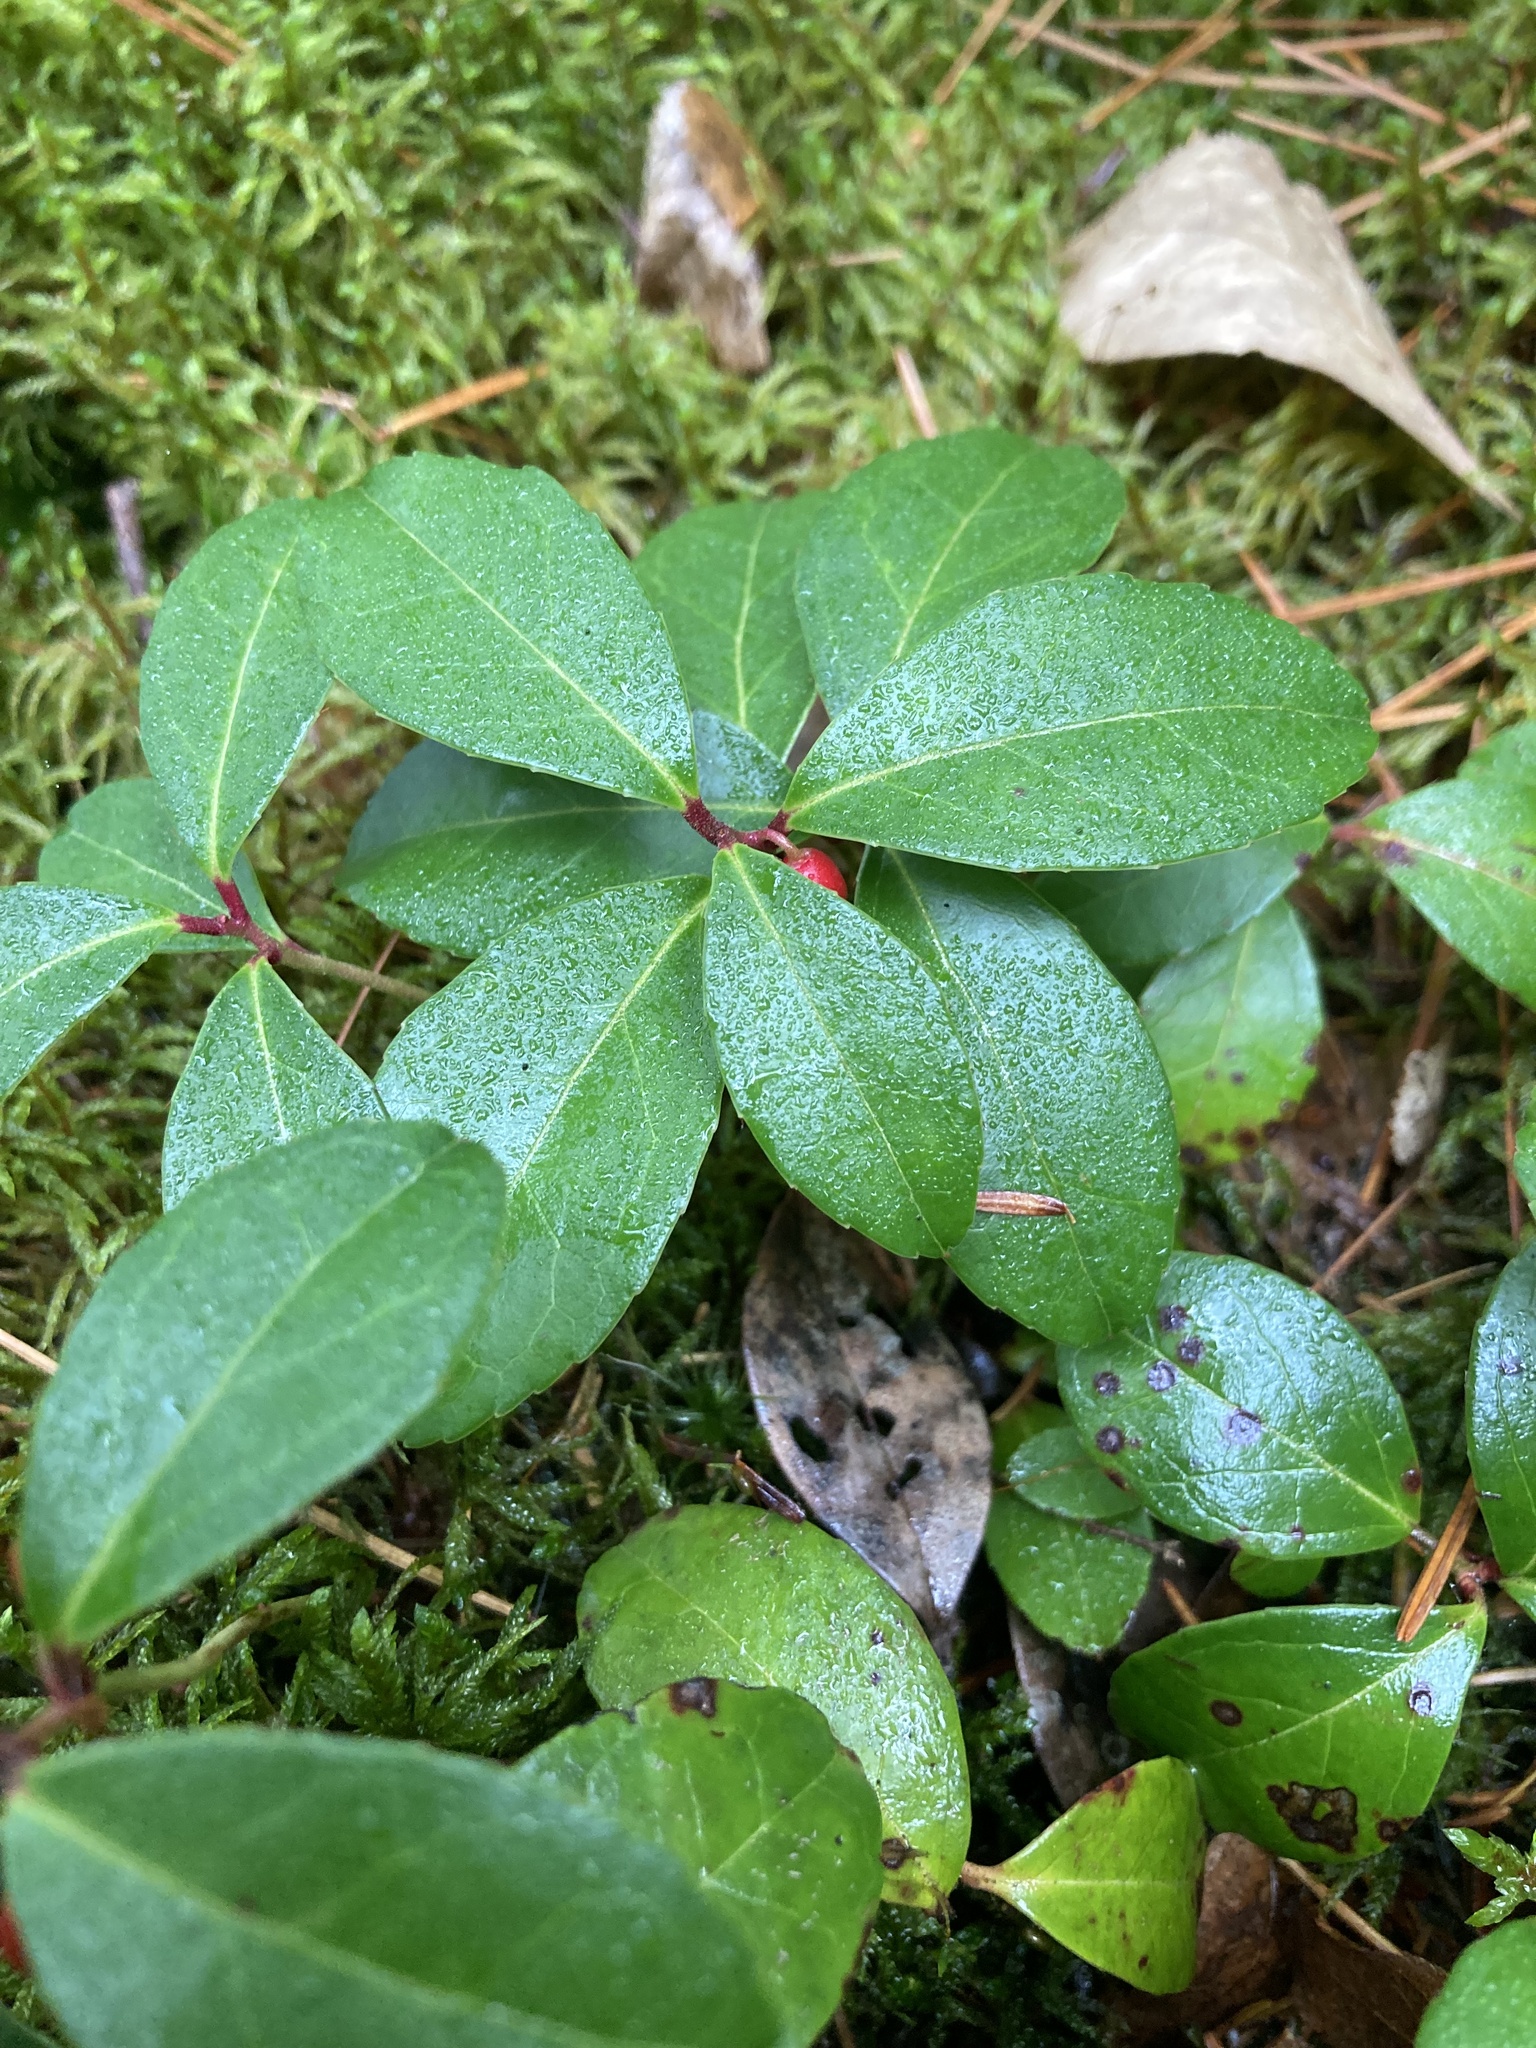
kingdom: Plantae
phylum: Tracheophyta
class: Magnoliopsida
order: Ericales
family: Ericaceae
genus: Gaultheria
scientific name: Gaultheria procumbens
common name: Checkerberry
